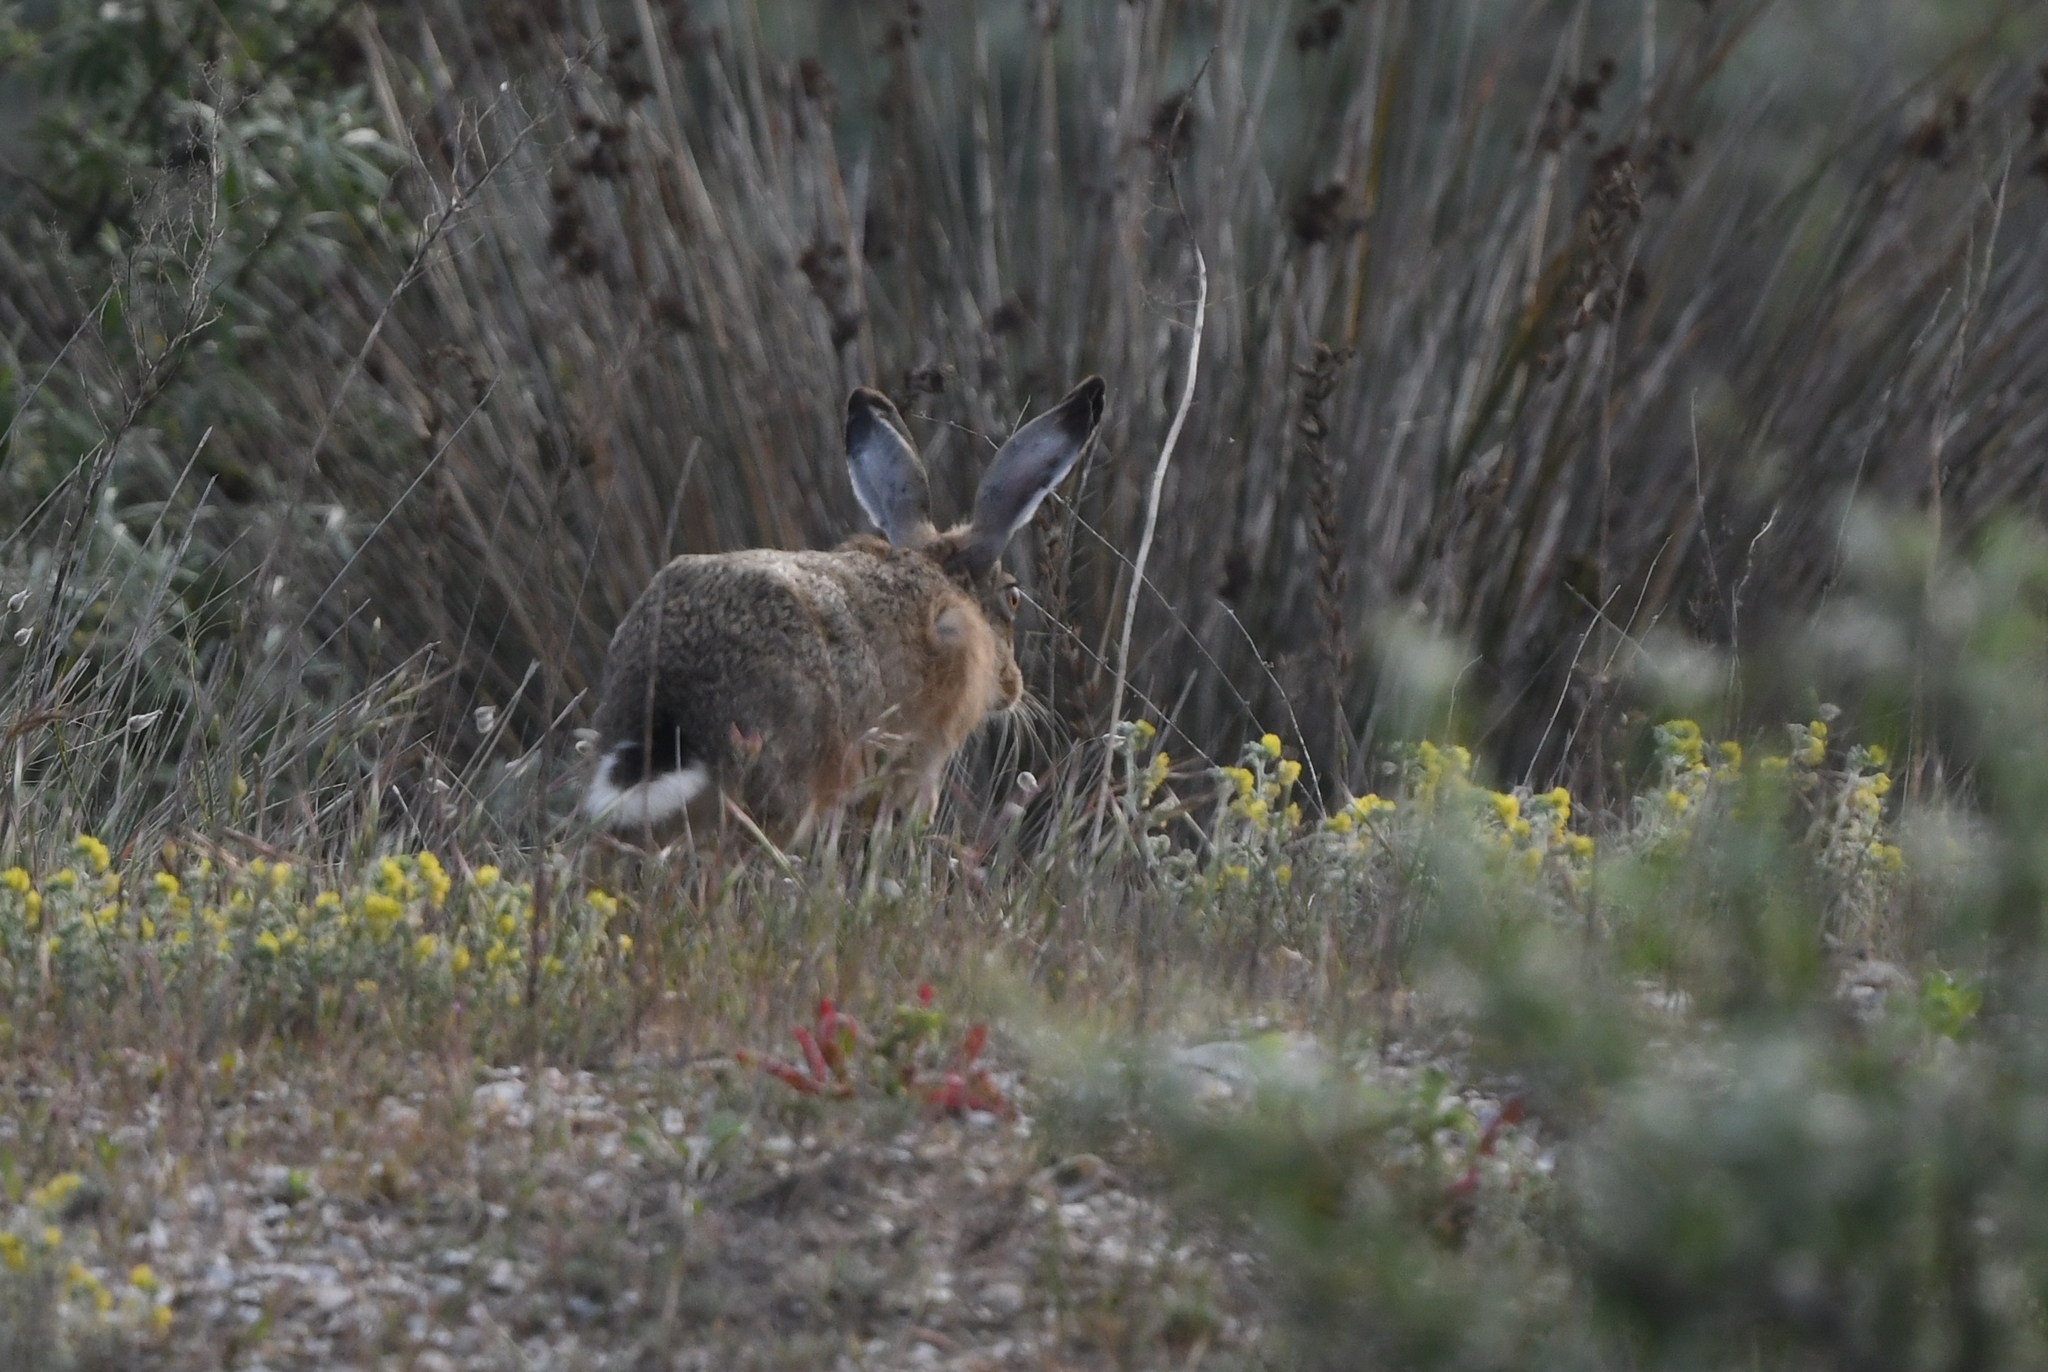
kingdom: Animalia
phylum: Chordata
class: Mammalia
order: Lagomorpha
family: Leporidae
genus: Lepus
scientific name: Lepus europaeus
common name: European hare
